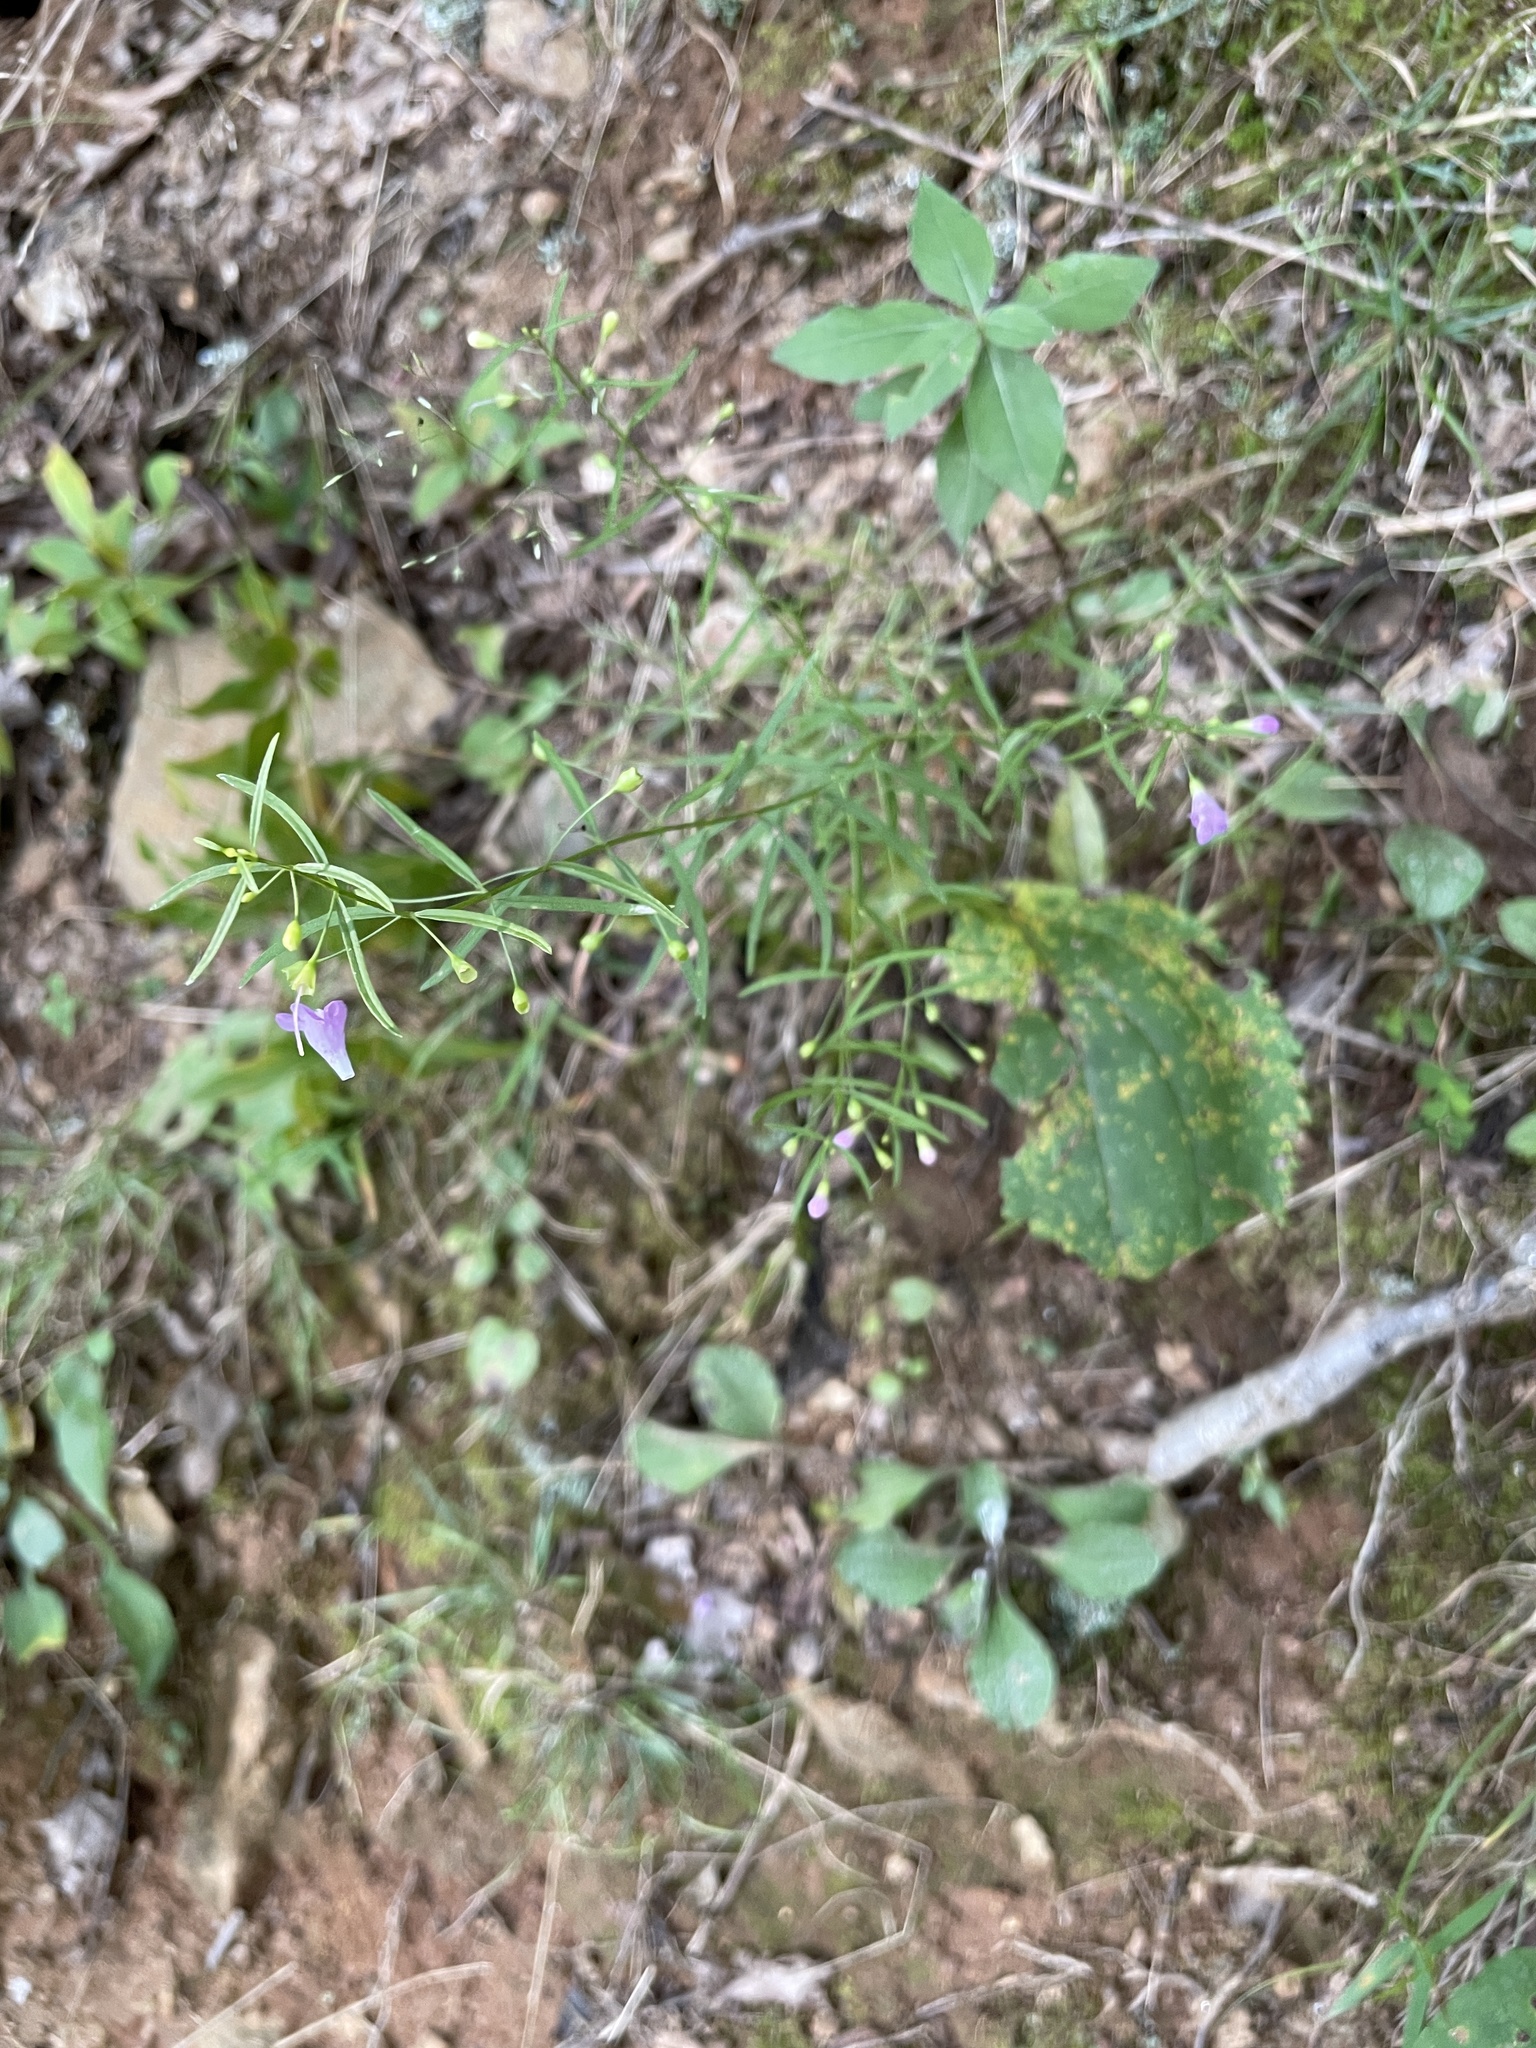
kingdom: Plantae
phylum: Tracheophyta
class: Magnoliopsida
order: Lamiales
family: Orobanchaceae
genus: Agalinis
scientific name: Agalinis tenuifolia
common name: Slender agalinis
